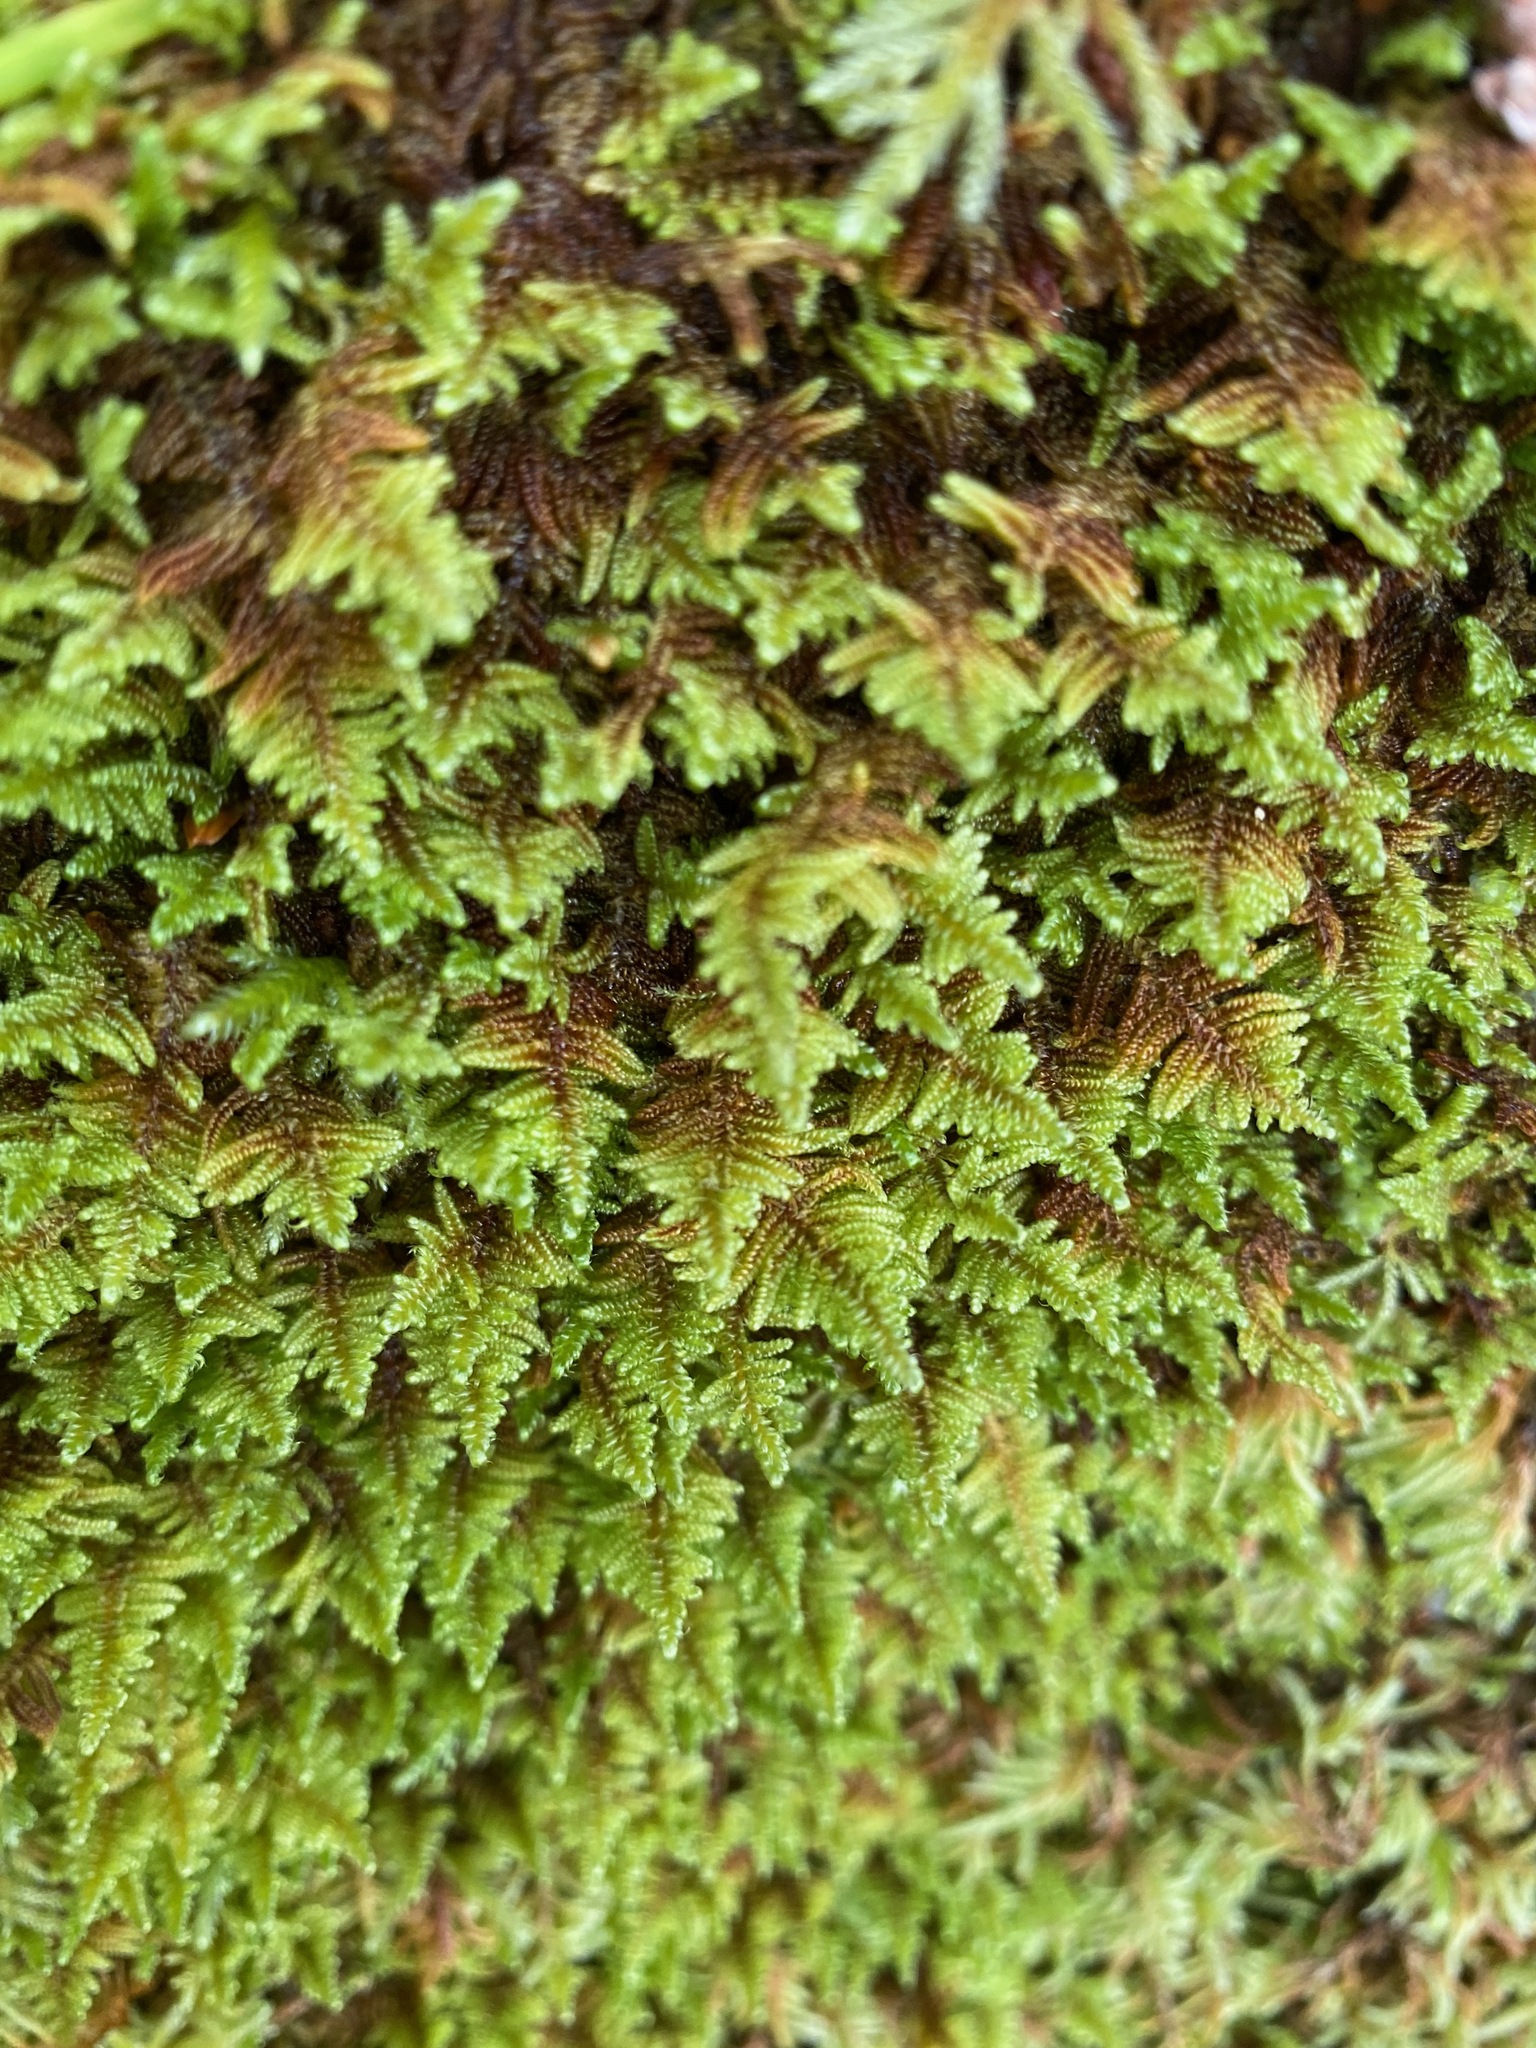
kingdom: Plantae
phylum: Bryophyta
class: Bryopsida
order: Hypnales
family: Stereodontaceae
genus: Stereodon
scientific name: Stereodon subimponens
